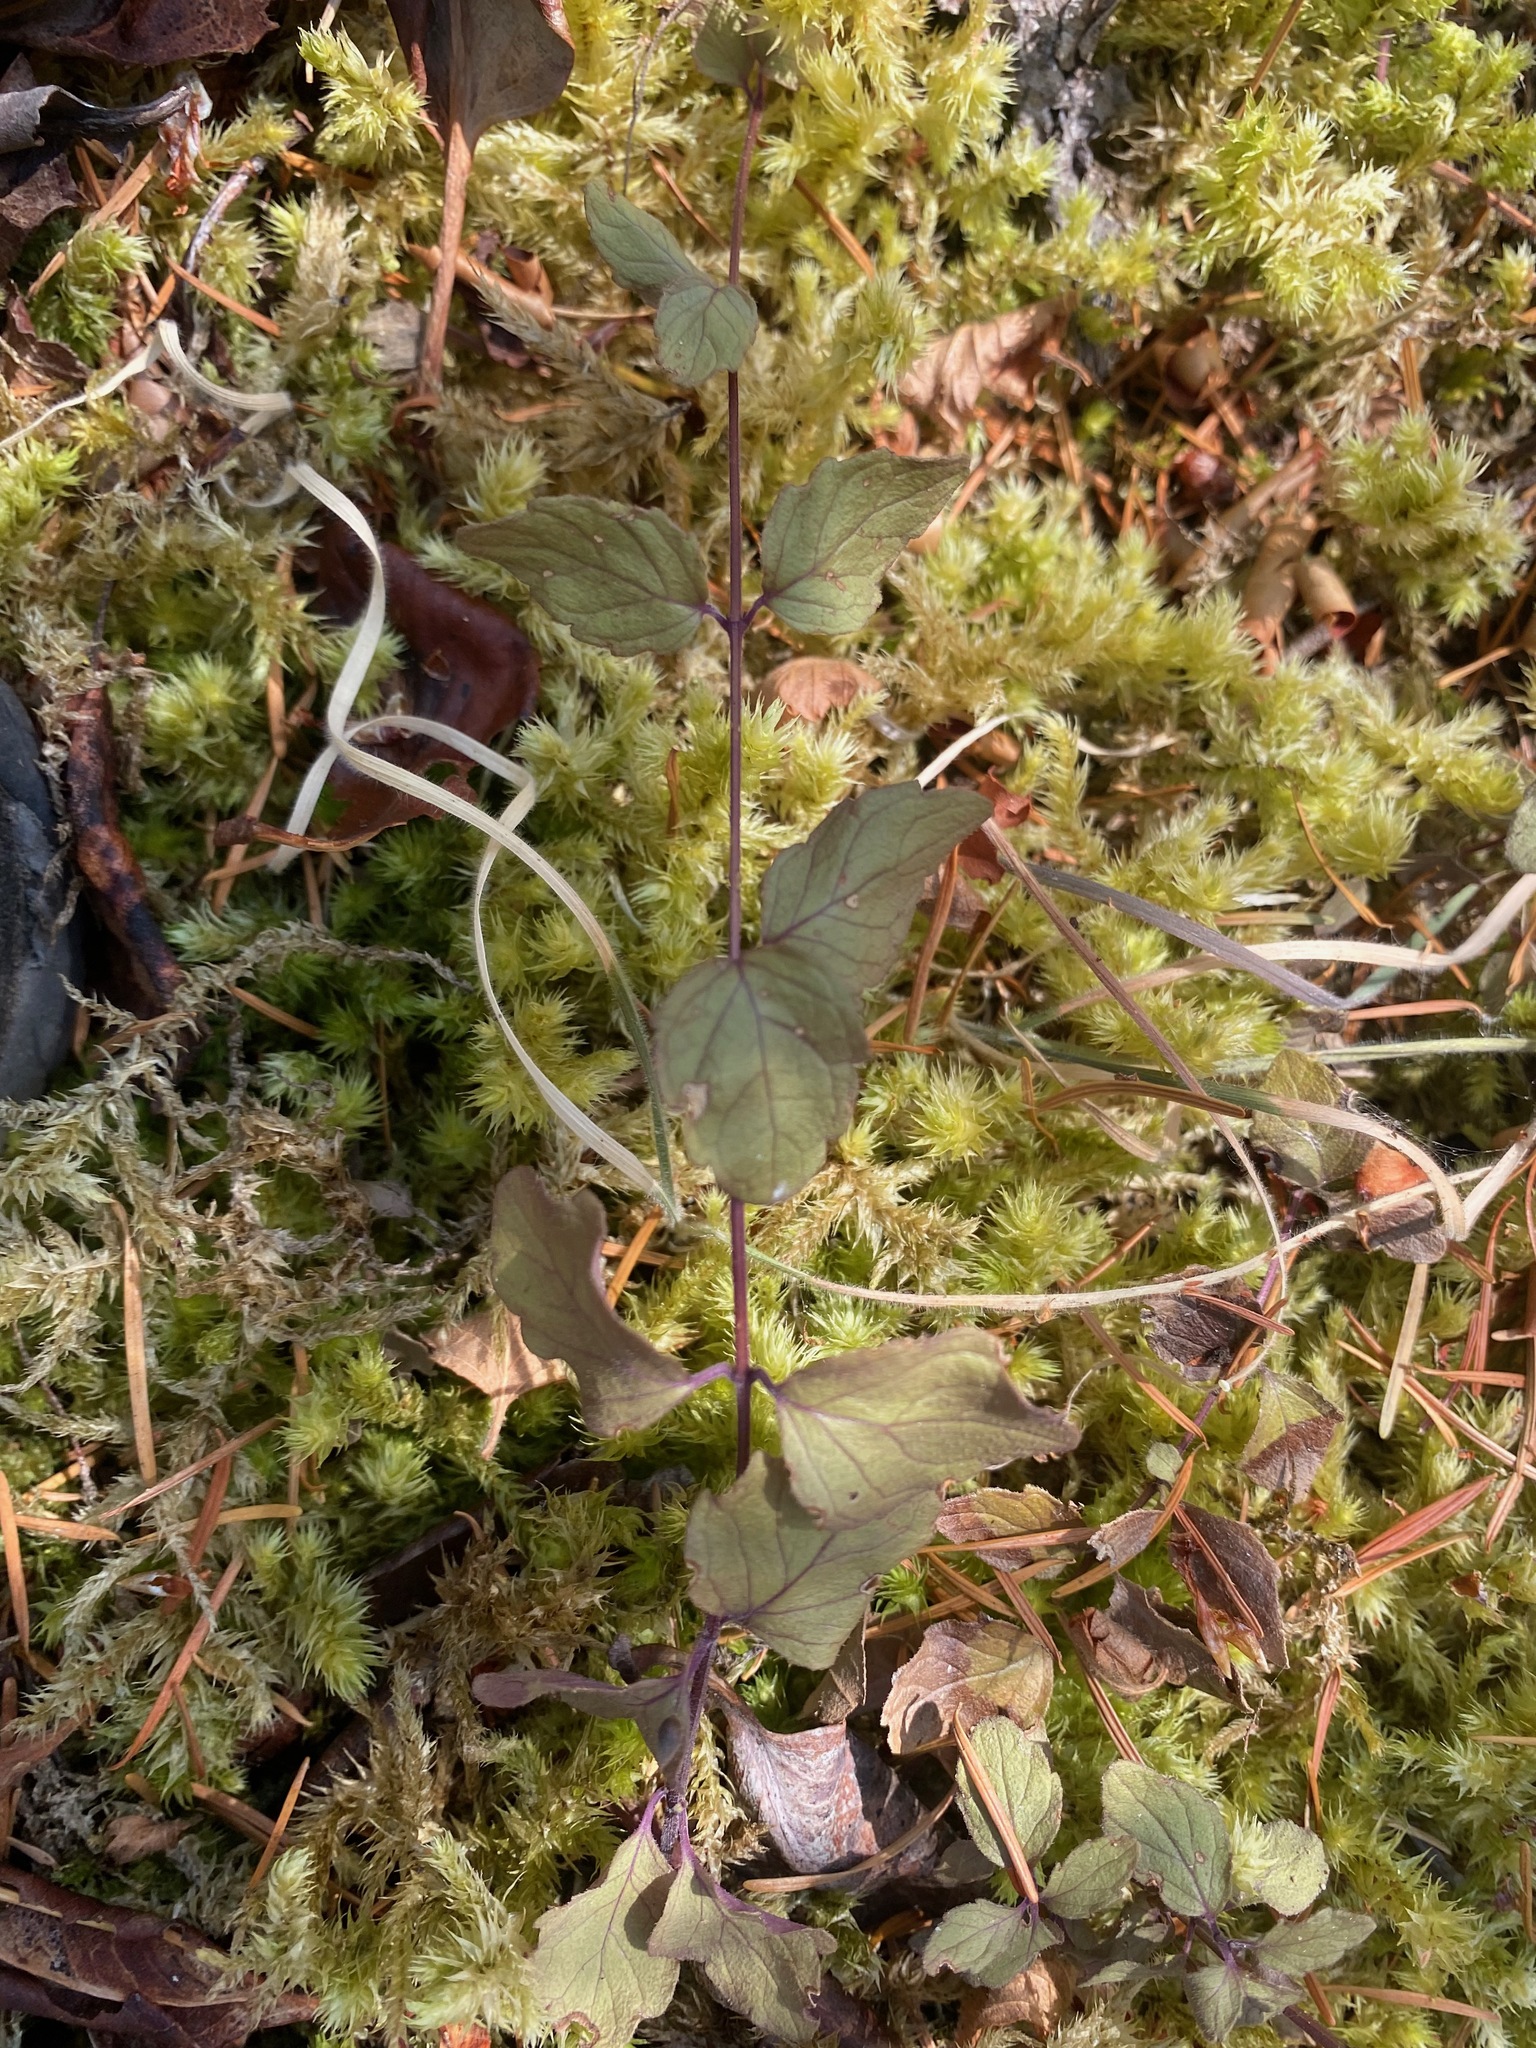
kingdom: Plantae
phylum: Tracheophyta
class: Magnoliopsida
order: Lamiales
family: Lamiaceae
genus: Micromeria
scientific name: Micromeria douglasii
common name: Yerba buena
